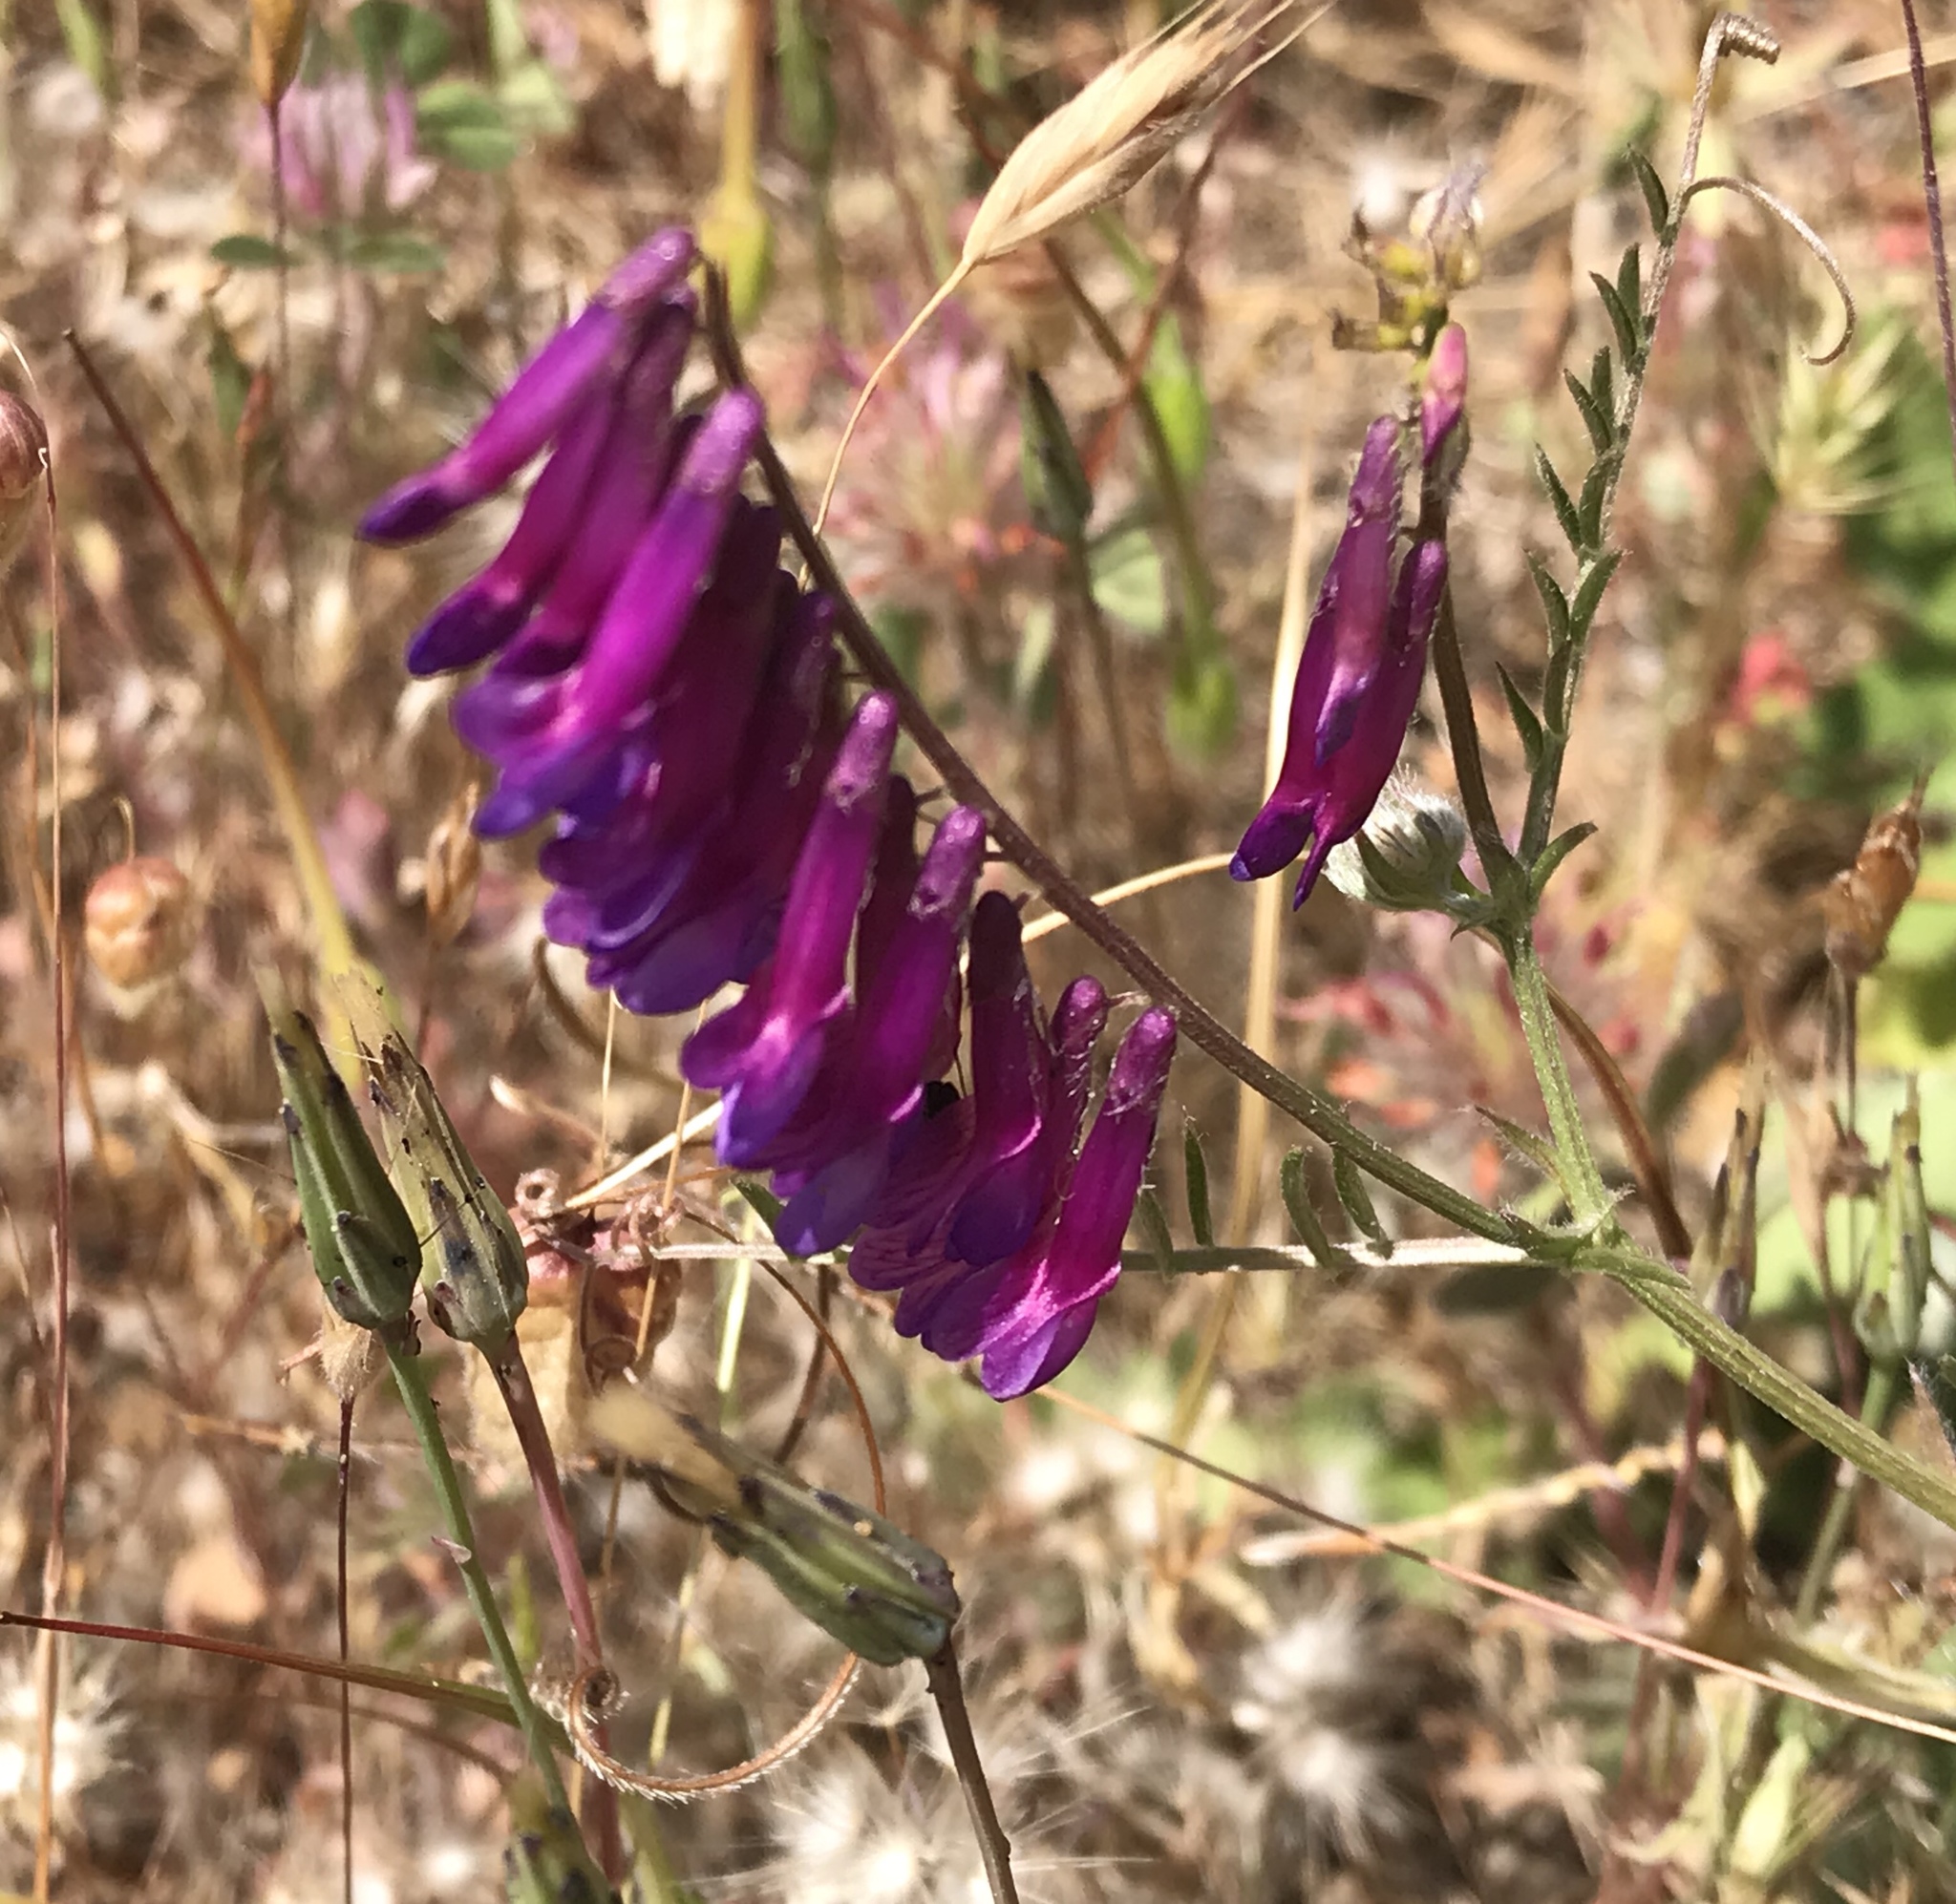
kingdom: Plantae
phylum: Tracheophyta
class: Magnoliopsida
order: Fabales
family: Fabaceae
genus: Vicia
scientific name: Vicia villosa
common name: Fodder vetch
